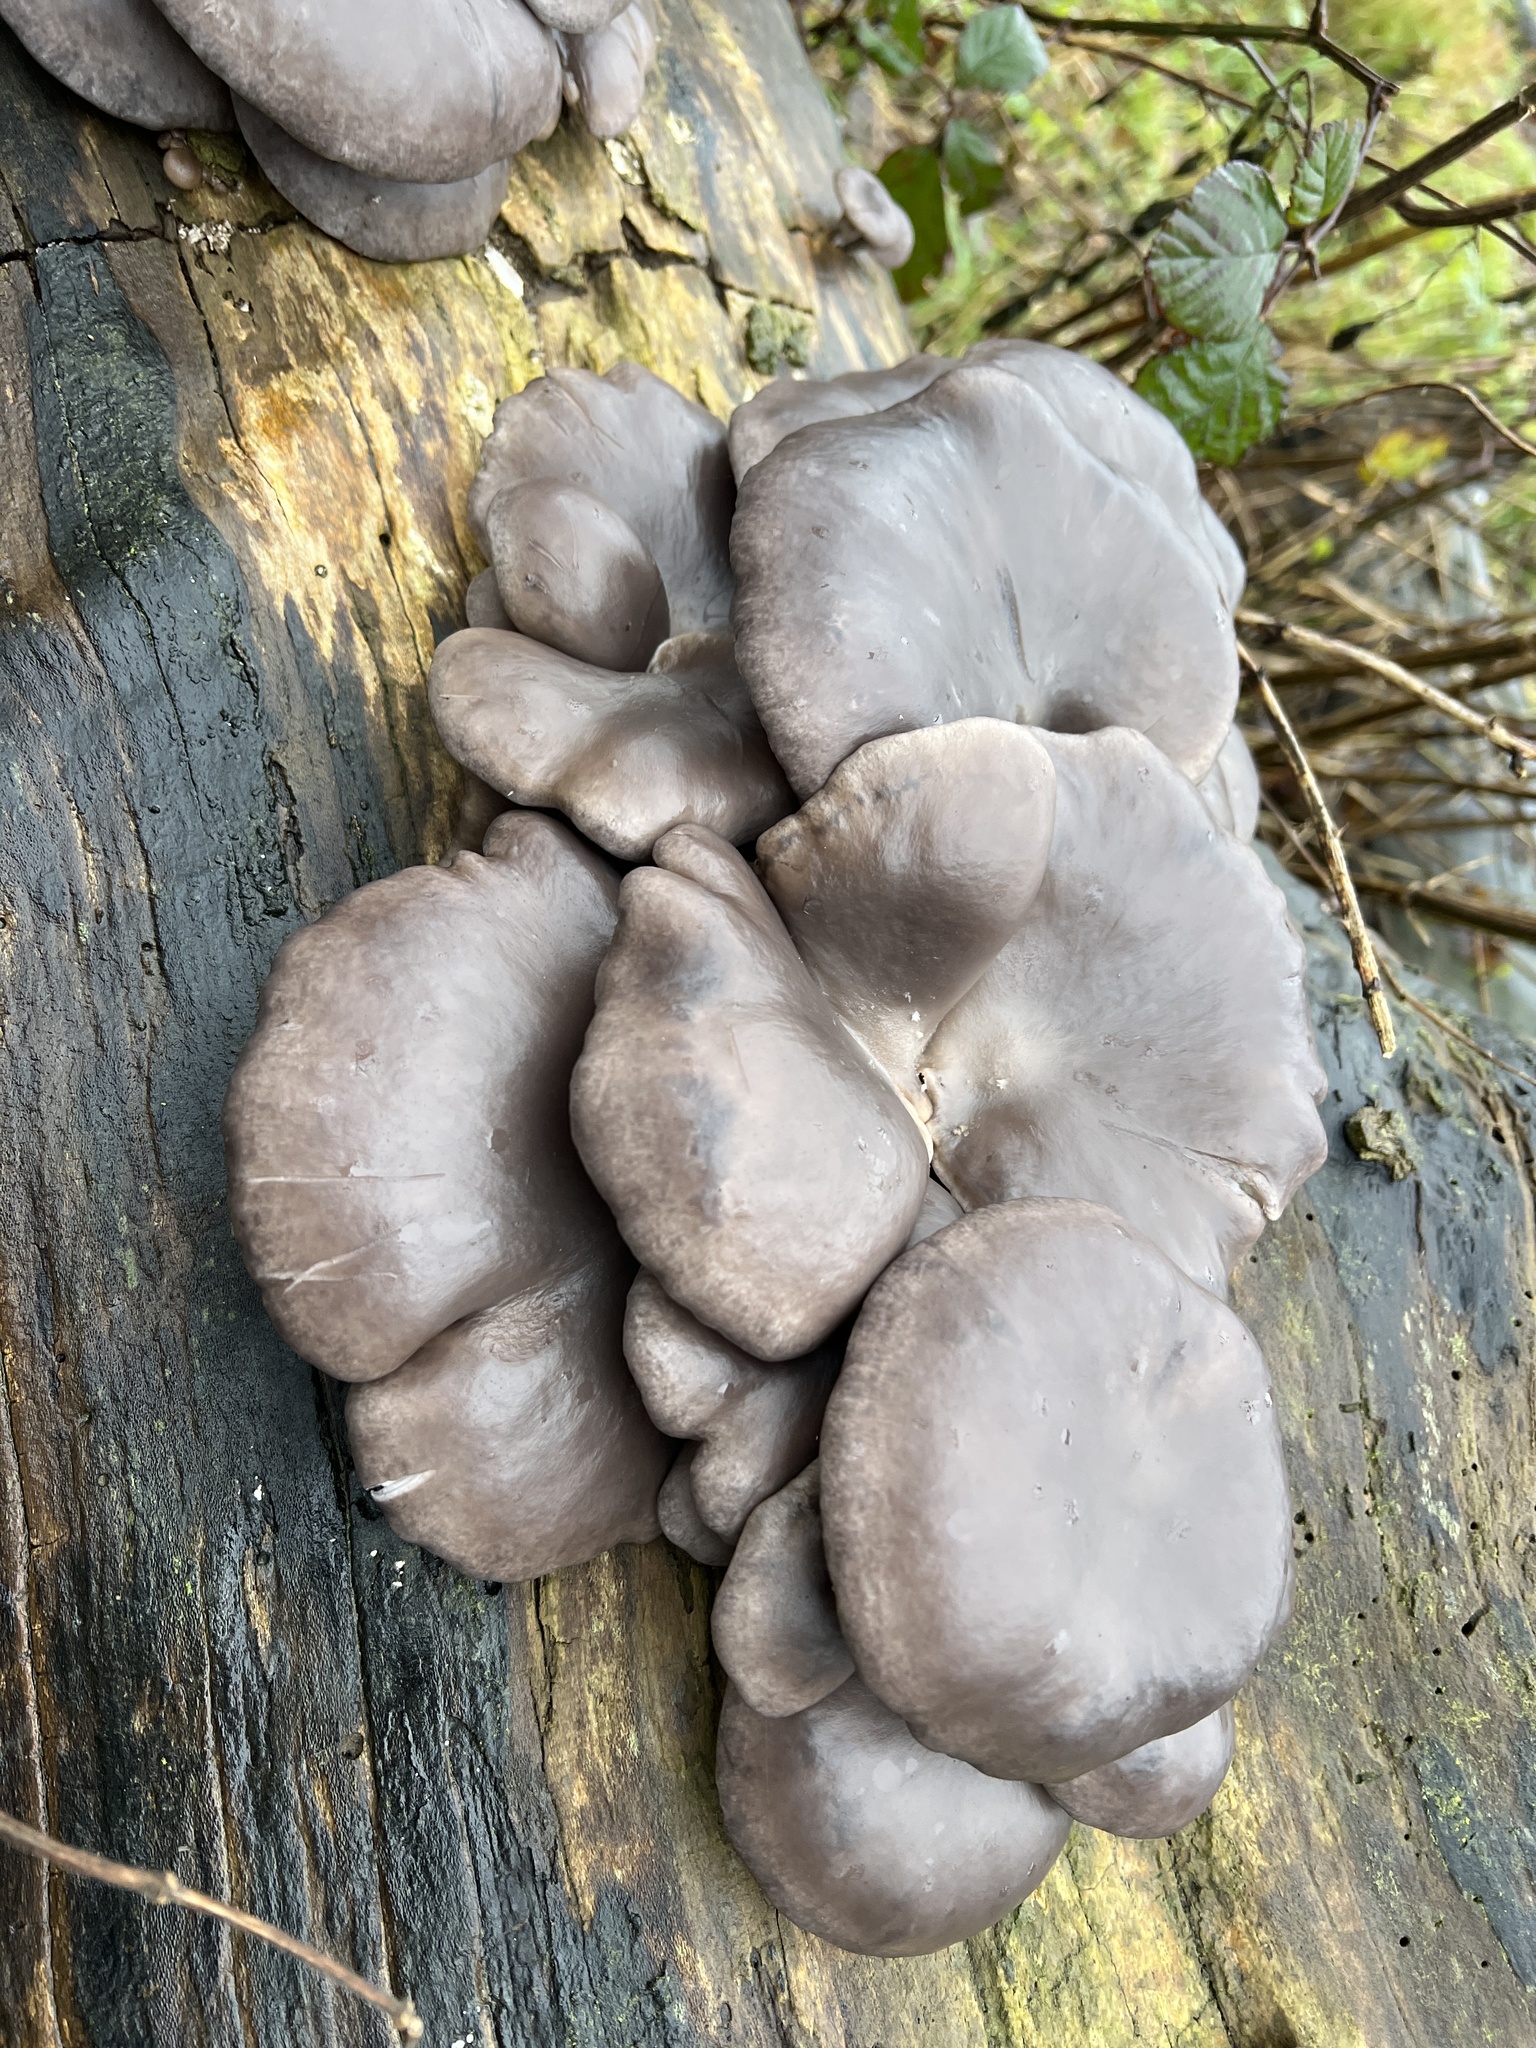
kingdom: Fungi
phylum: Basidiomycota
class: Agaricomycetes
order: Agaricales
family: Pleurotaceae
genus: Pleurotus
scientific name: Pleurotus ostreatus
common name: Oyster mushroom
